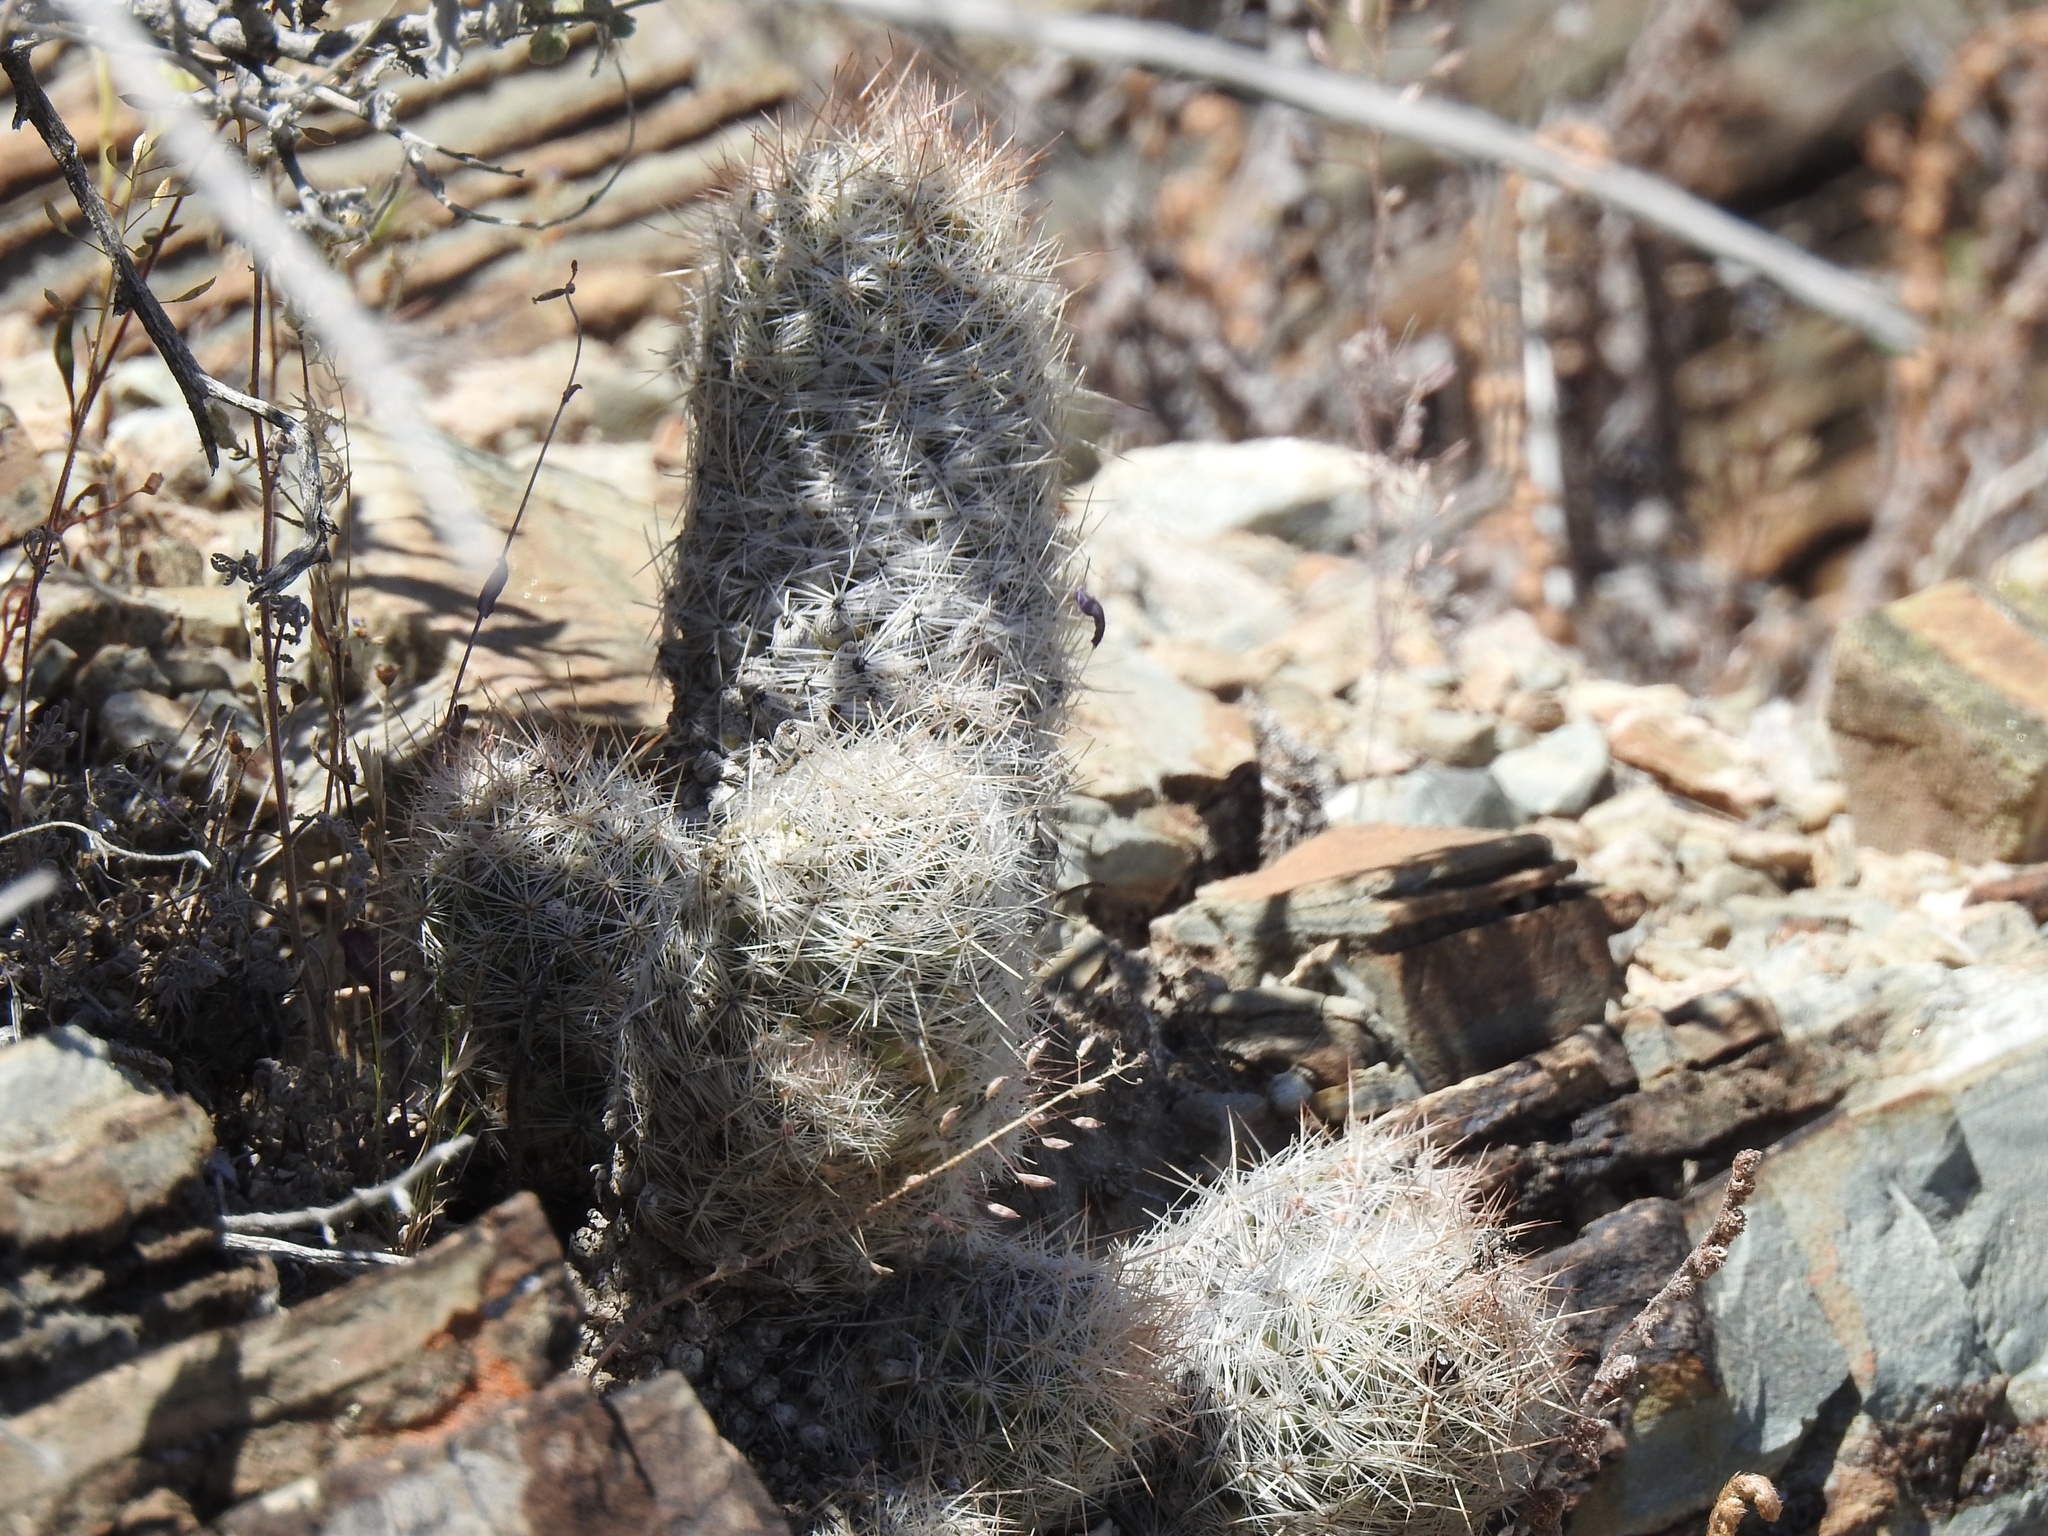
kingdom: Plantae
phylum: Tracheophyta
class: Magnoliopsida
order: Caryophyllales
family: Cactaceae
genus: Pelecyphora
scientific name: Pelecyphora tuberculosa
